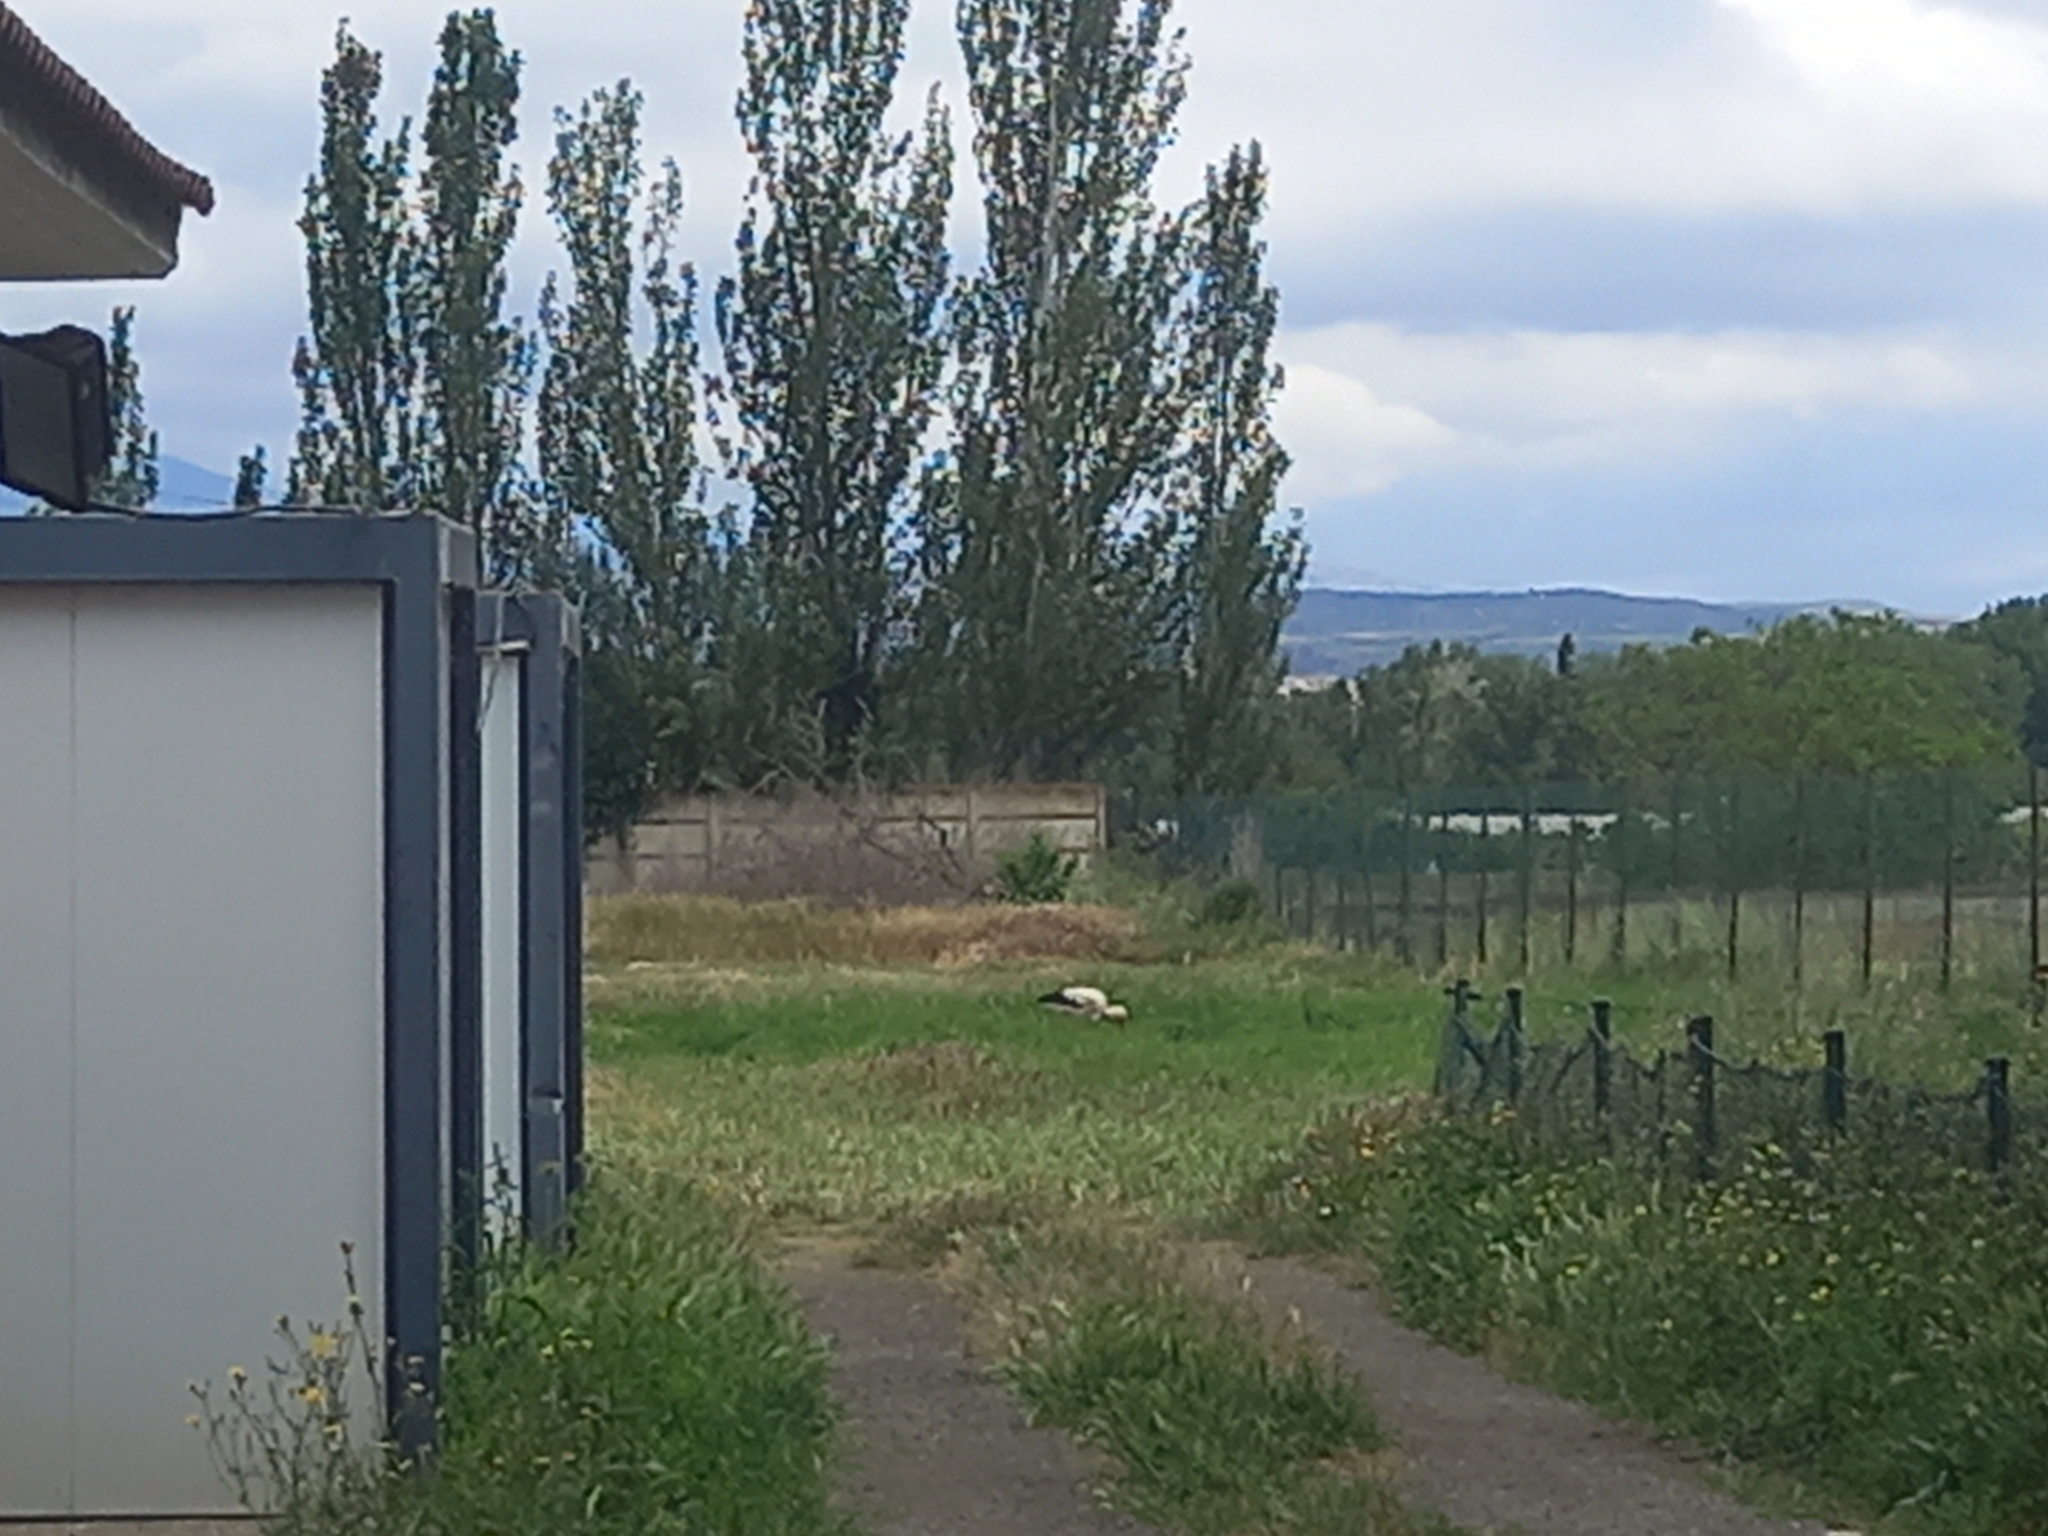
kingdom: Animalia
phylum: Chordata
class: Aves
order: Ciconiiformes
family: Ciconiidae
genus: Ciconia
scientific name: Ciconia ciconia
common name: White stork
